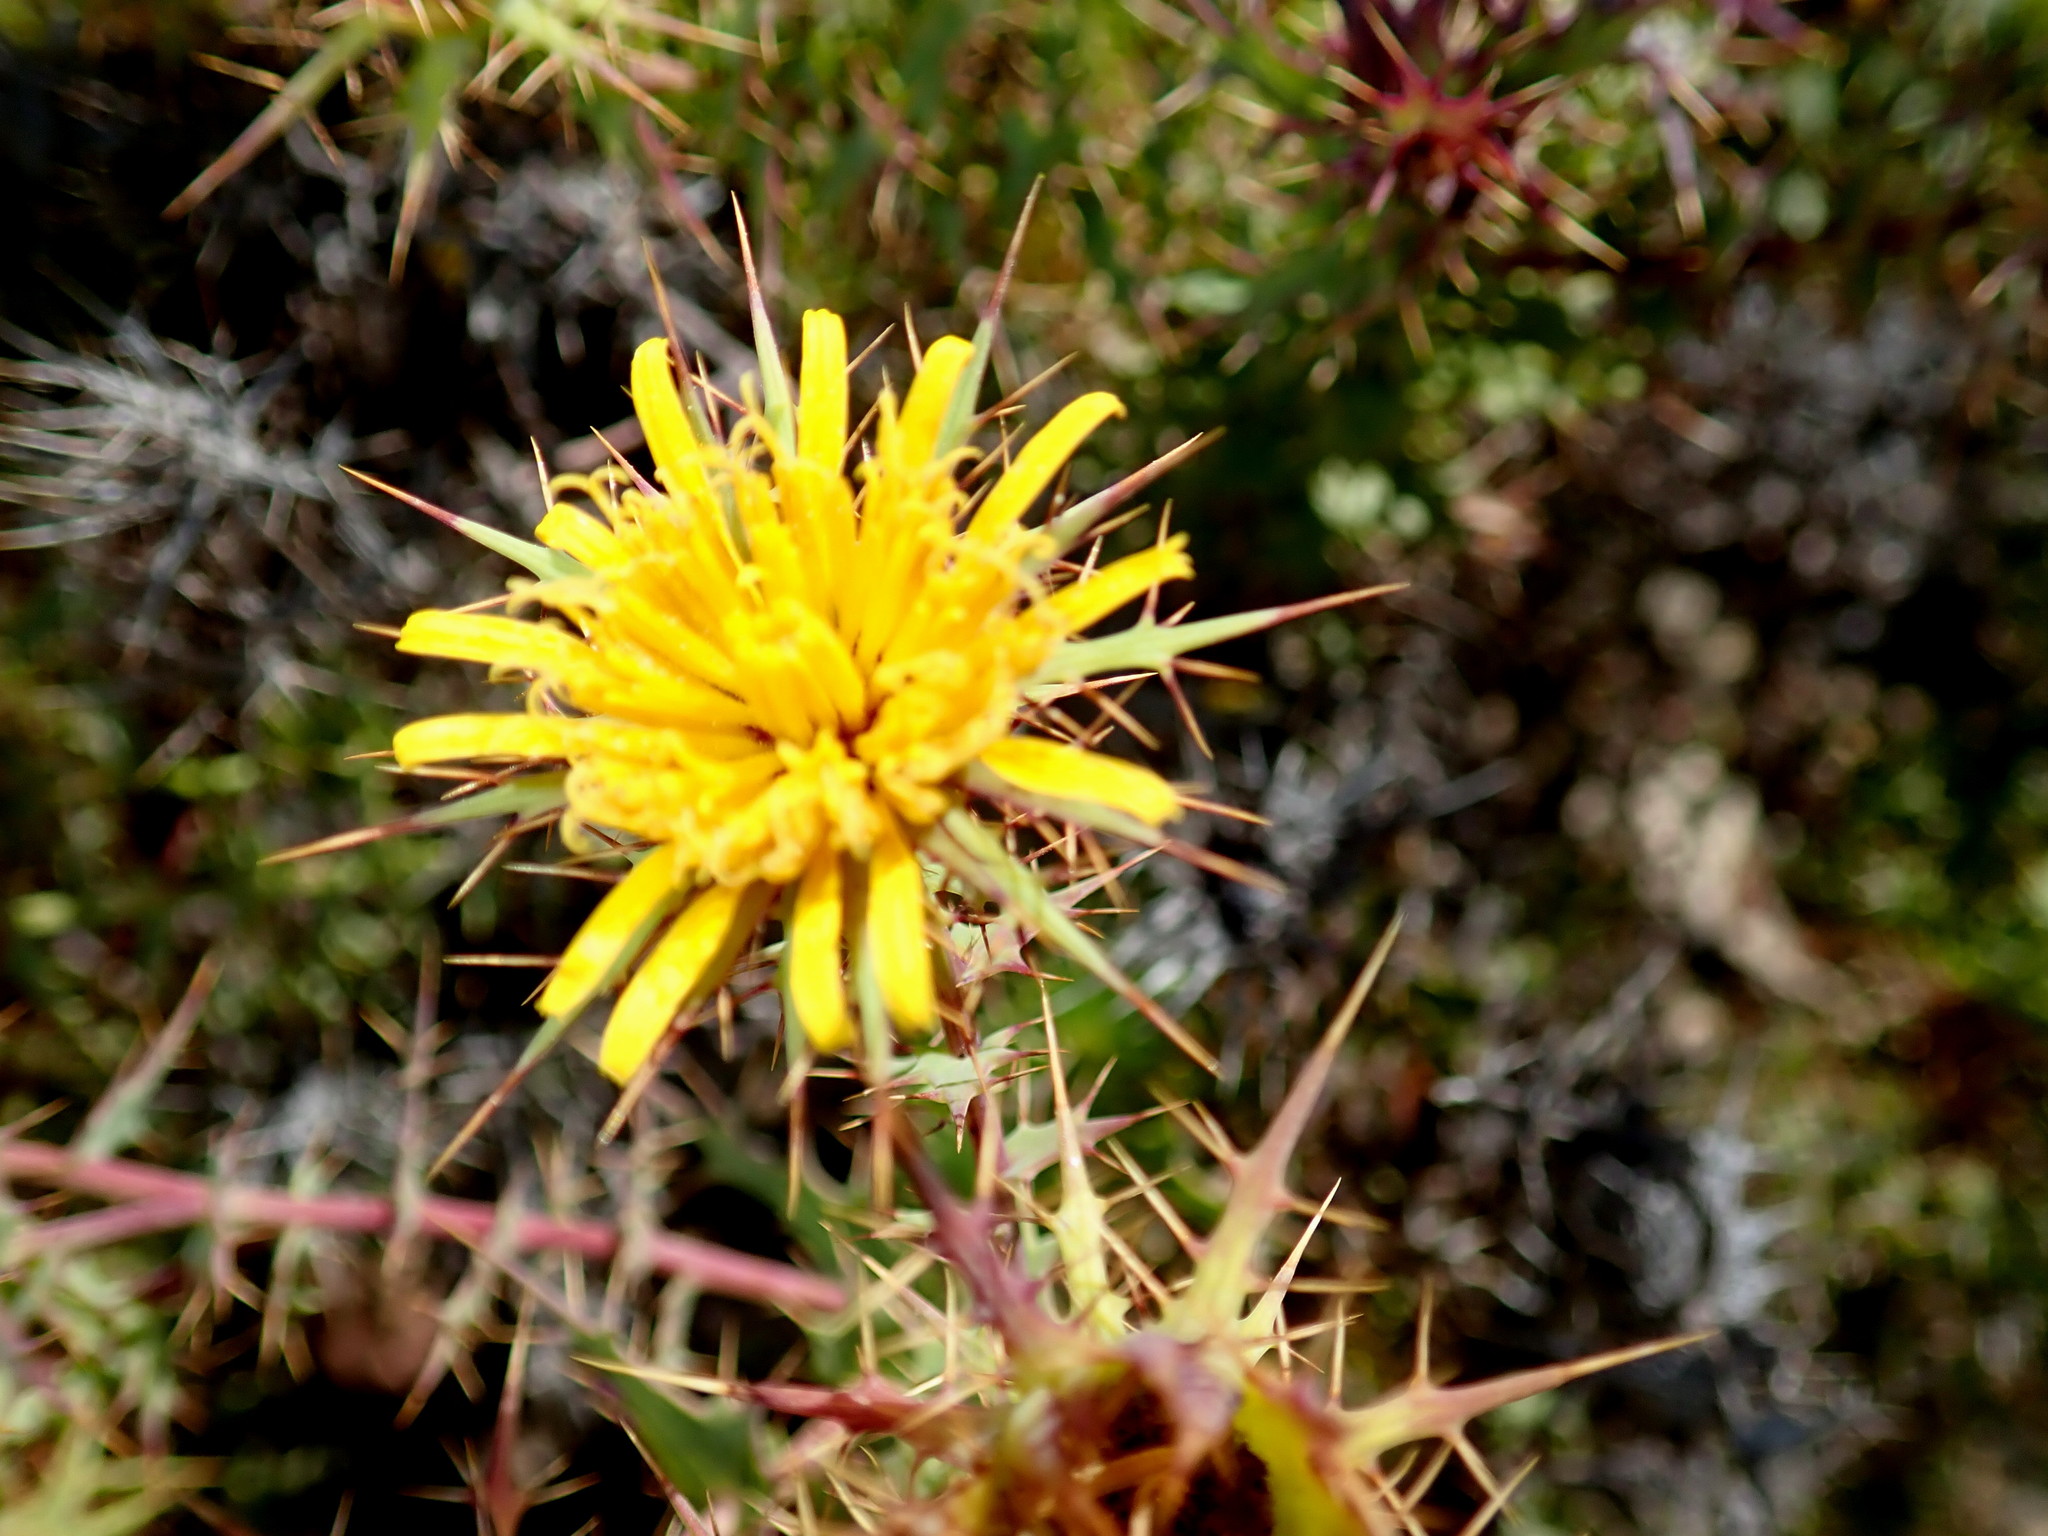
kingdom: Plantae
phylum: Tracheophyta
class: Magnoliopsida
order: Asterales
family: Asteraceae
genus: Berkheya
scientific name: Berkheya cruciata
